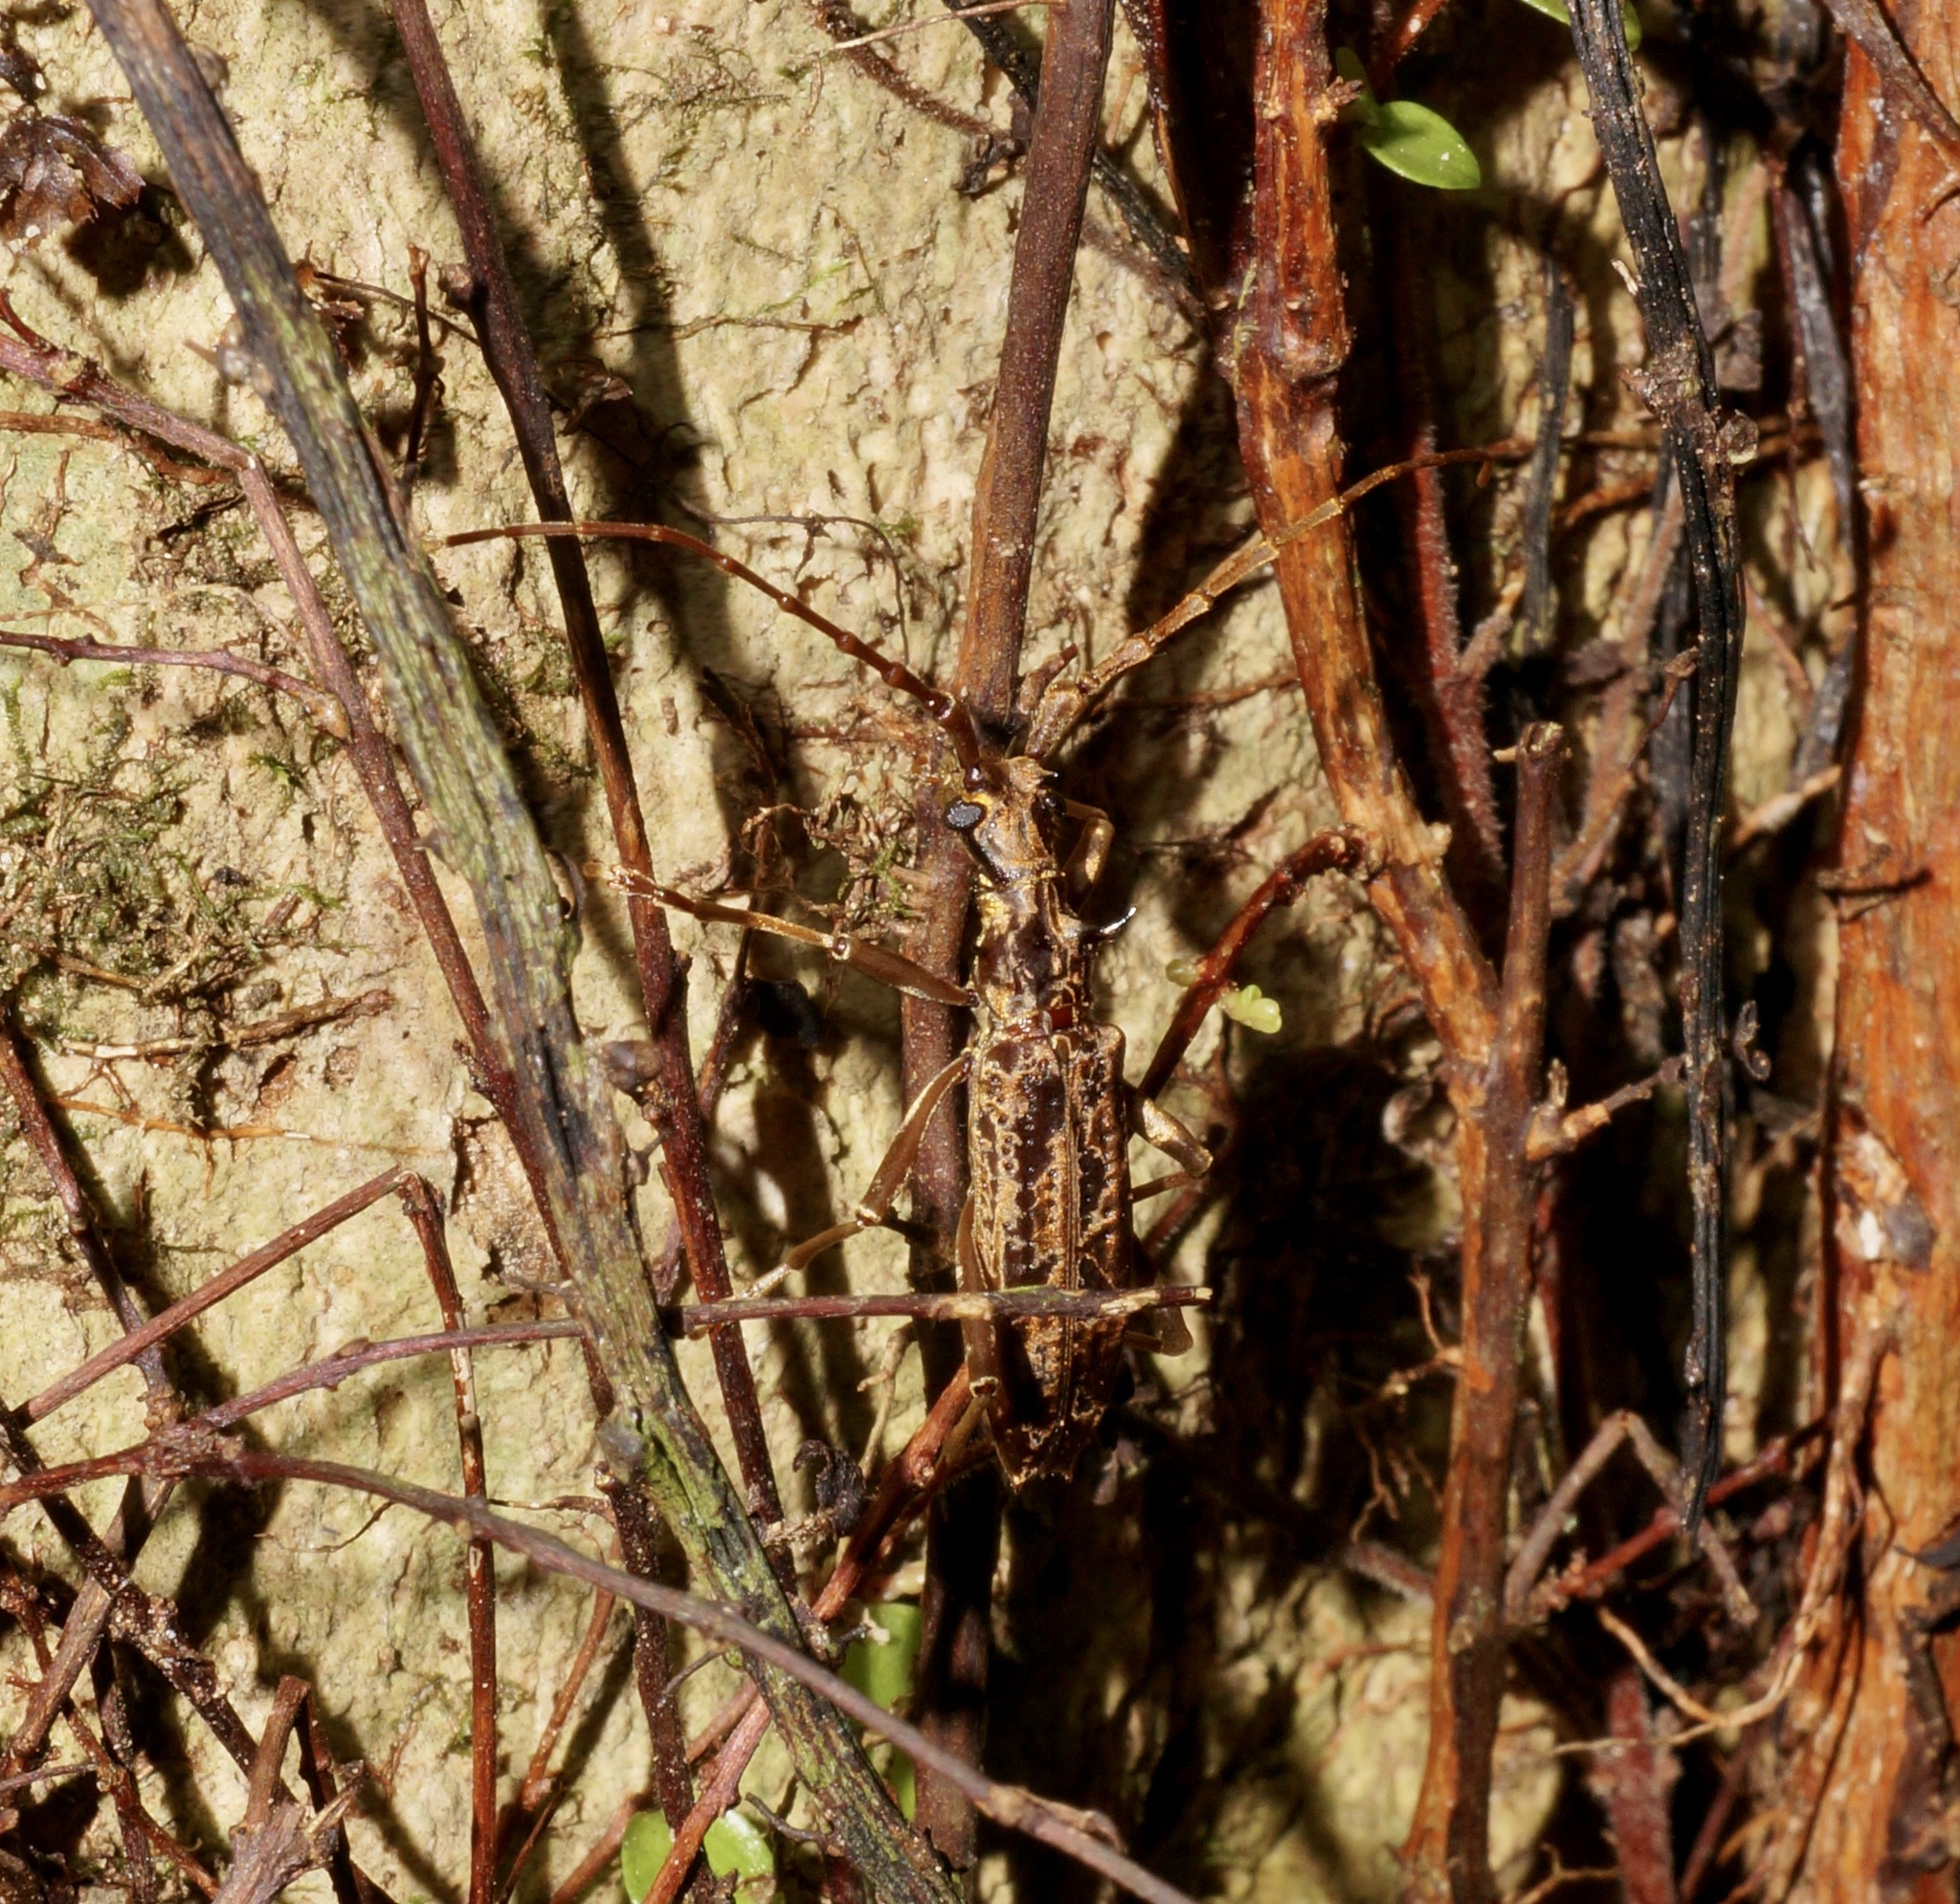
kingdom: Animalia
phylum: Arthropoda
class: Insecta
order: Coleoptera
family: Cerambycidae
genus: Blosyropus
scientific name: Blosyropus spinosus
